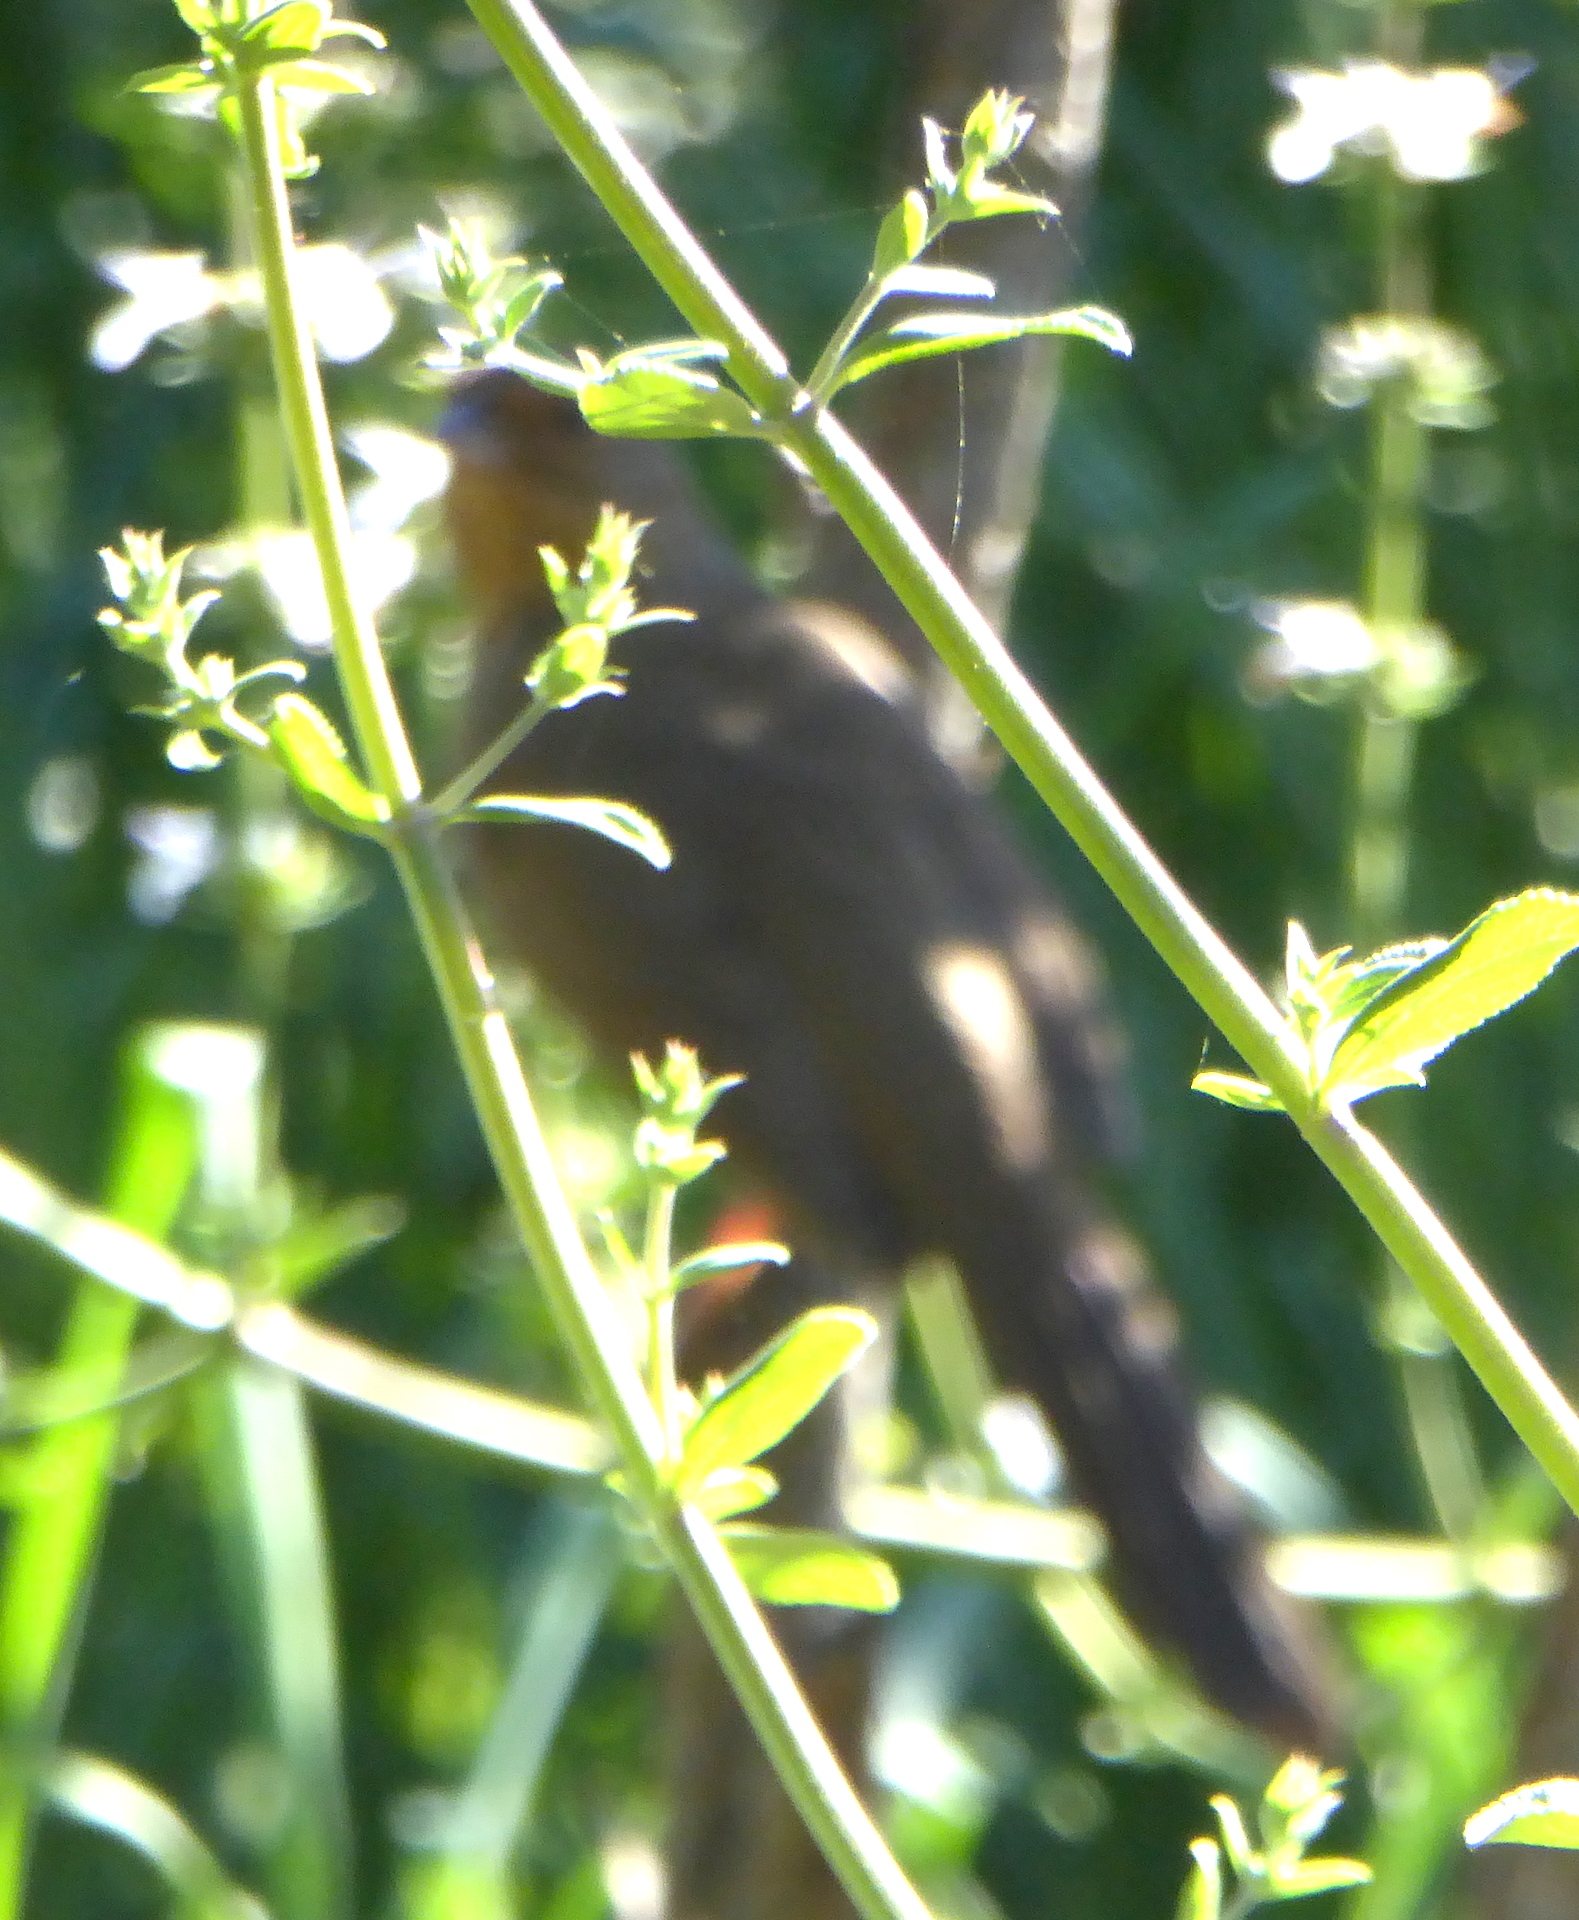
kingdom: Animalia
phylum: Chordata
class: Aves
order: Passeriformes
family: Passerellidae
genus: Melozone
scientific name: Melozone crissalis
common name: California towhee
